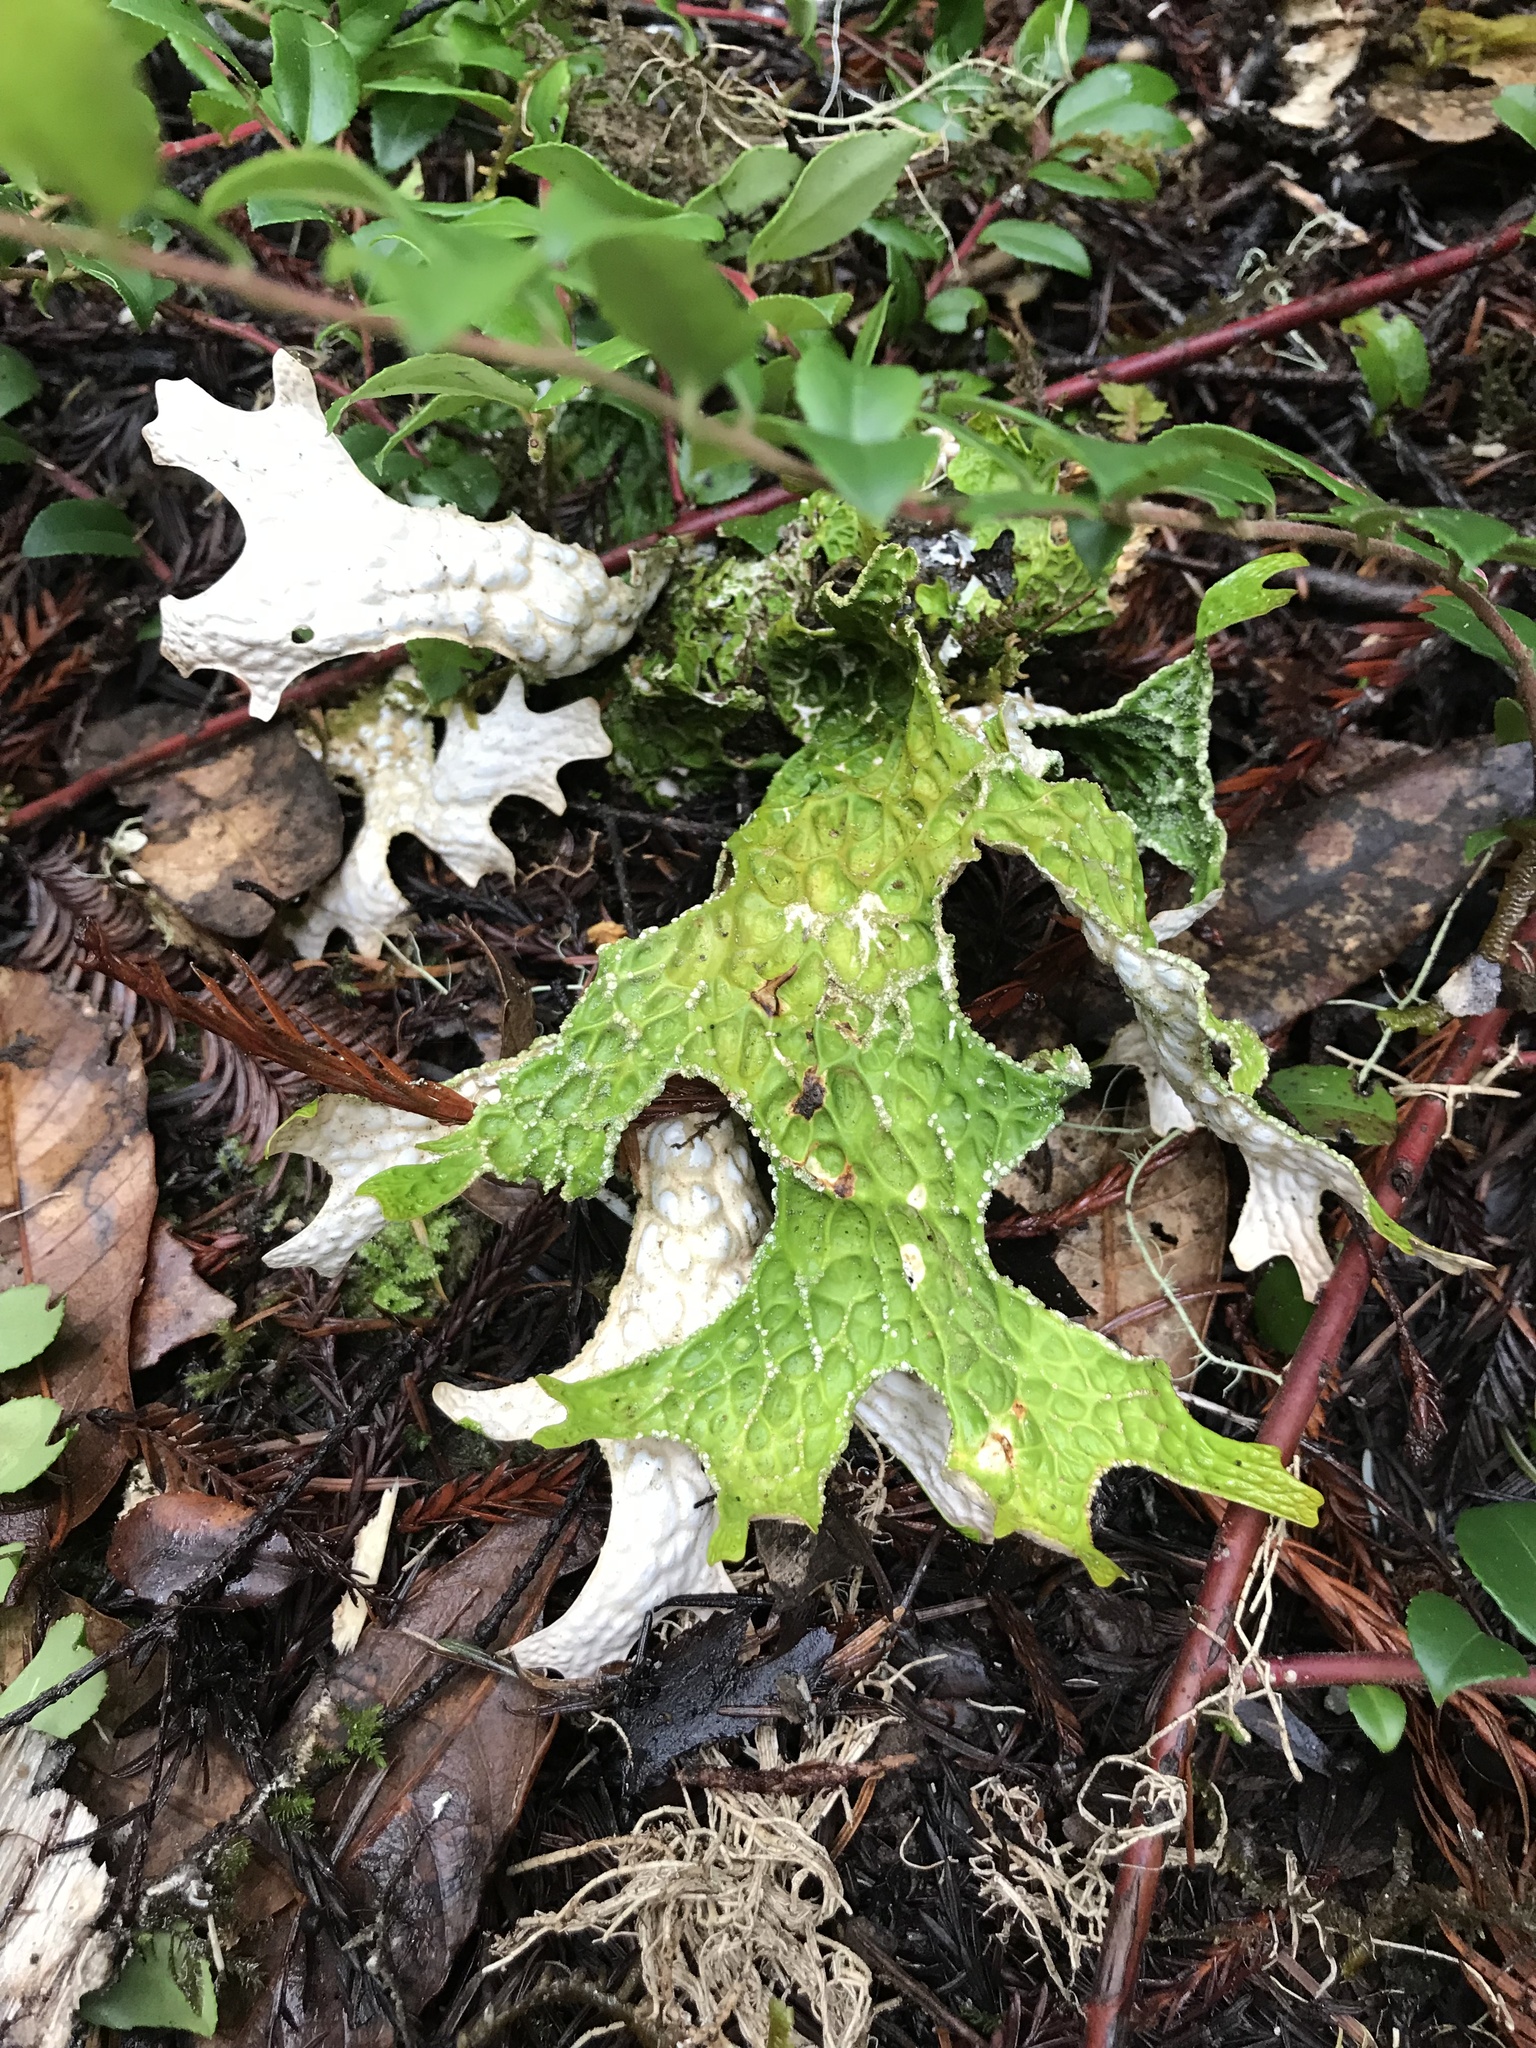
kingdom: Fungi
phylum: Ascomycota
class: Lecanoromycetes
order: Peltigerales
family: Lobariaceae
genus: Lobaria
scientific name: Lobaria pulmonaria
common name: Lungwort
